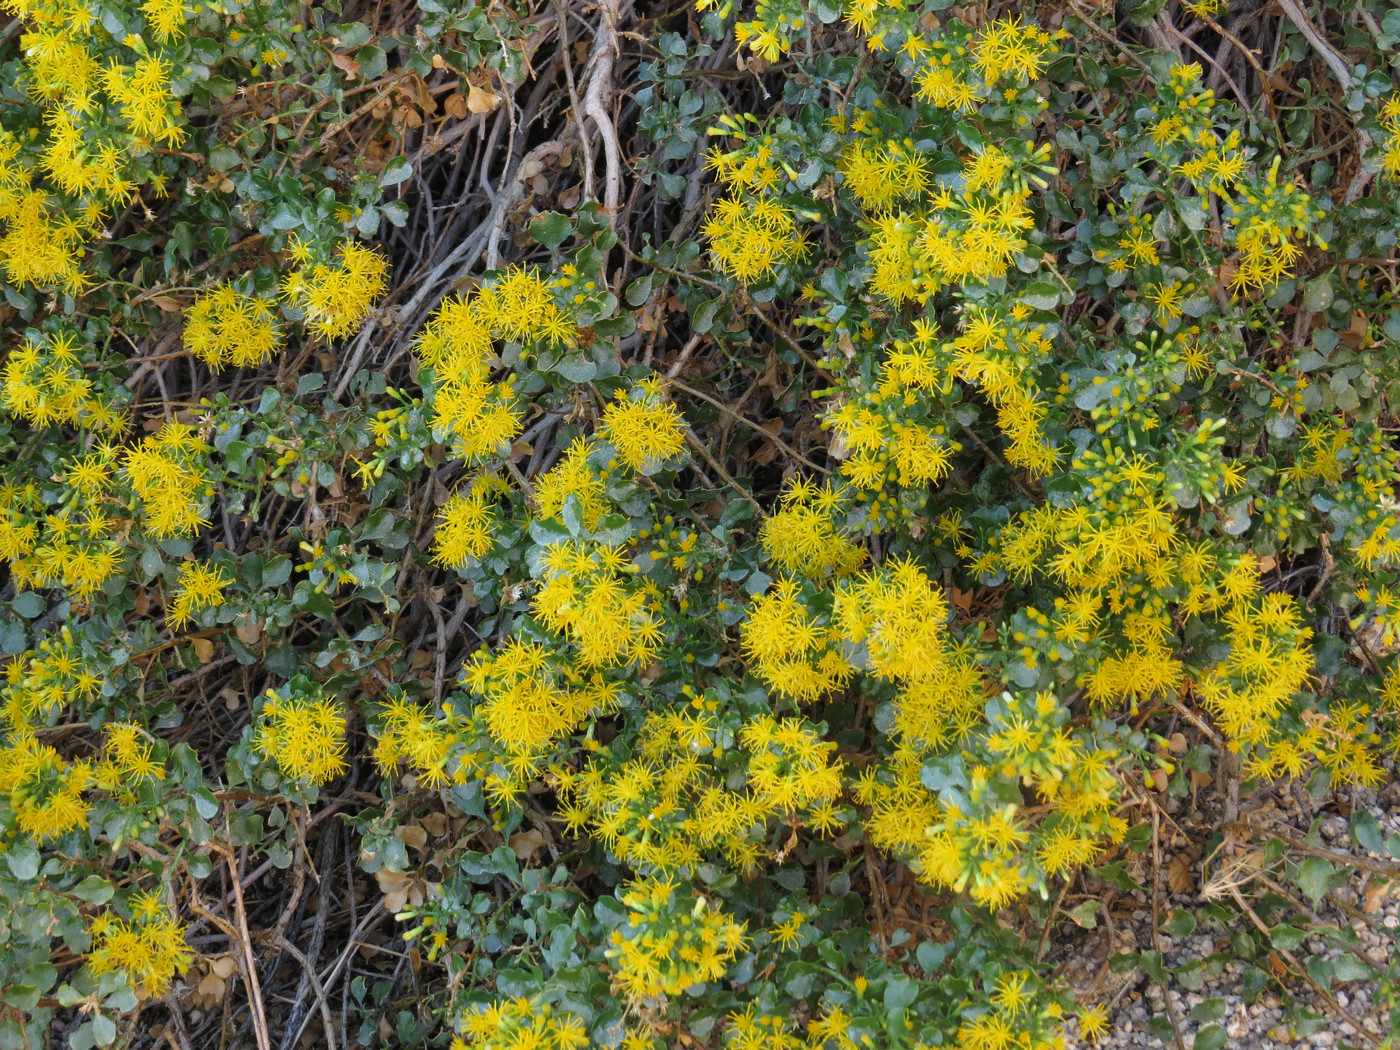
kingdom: Plantae
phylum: Tracheophyta
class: Magnoliopsida
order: Asterales
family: Asteraceae
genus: Ericameria
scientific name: Ericameria cuneata
